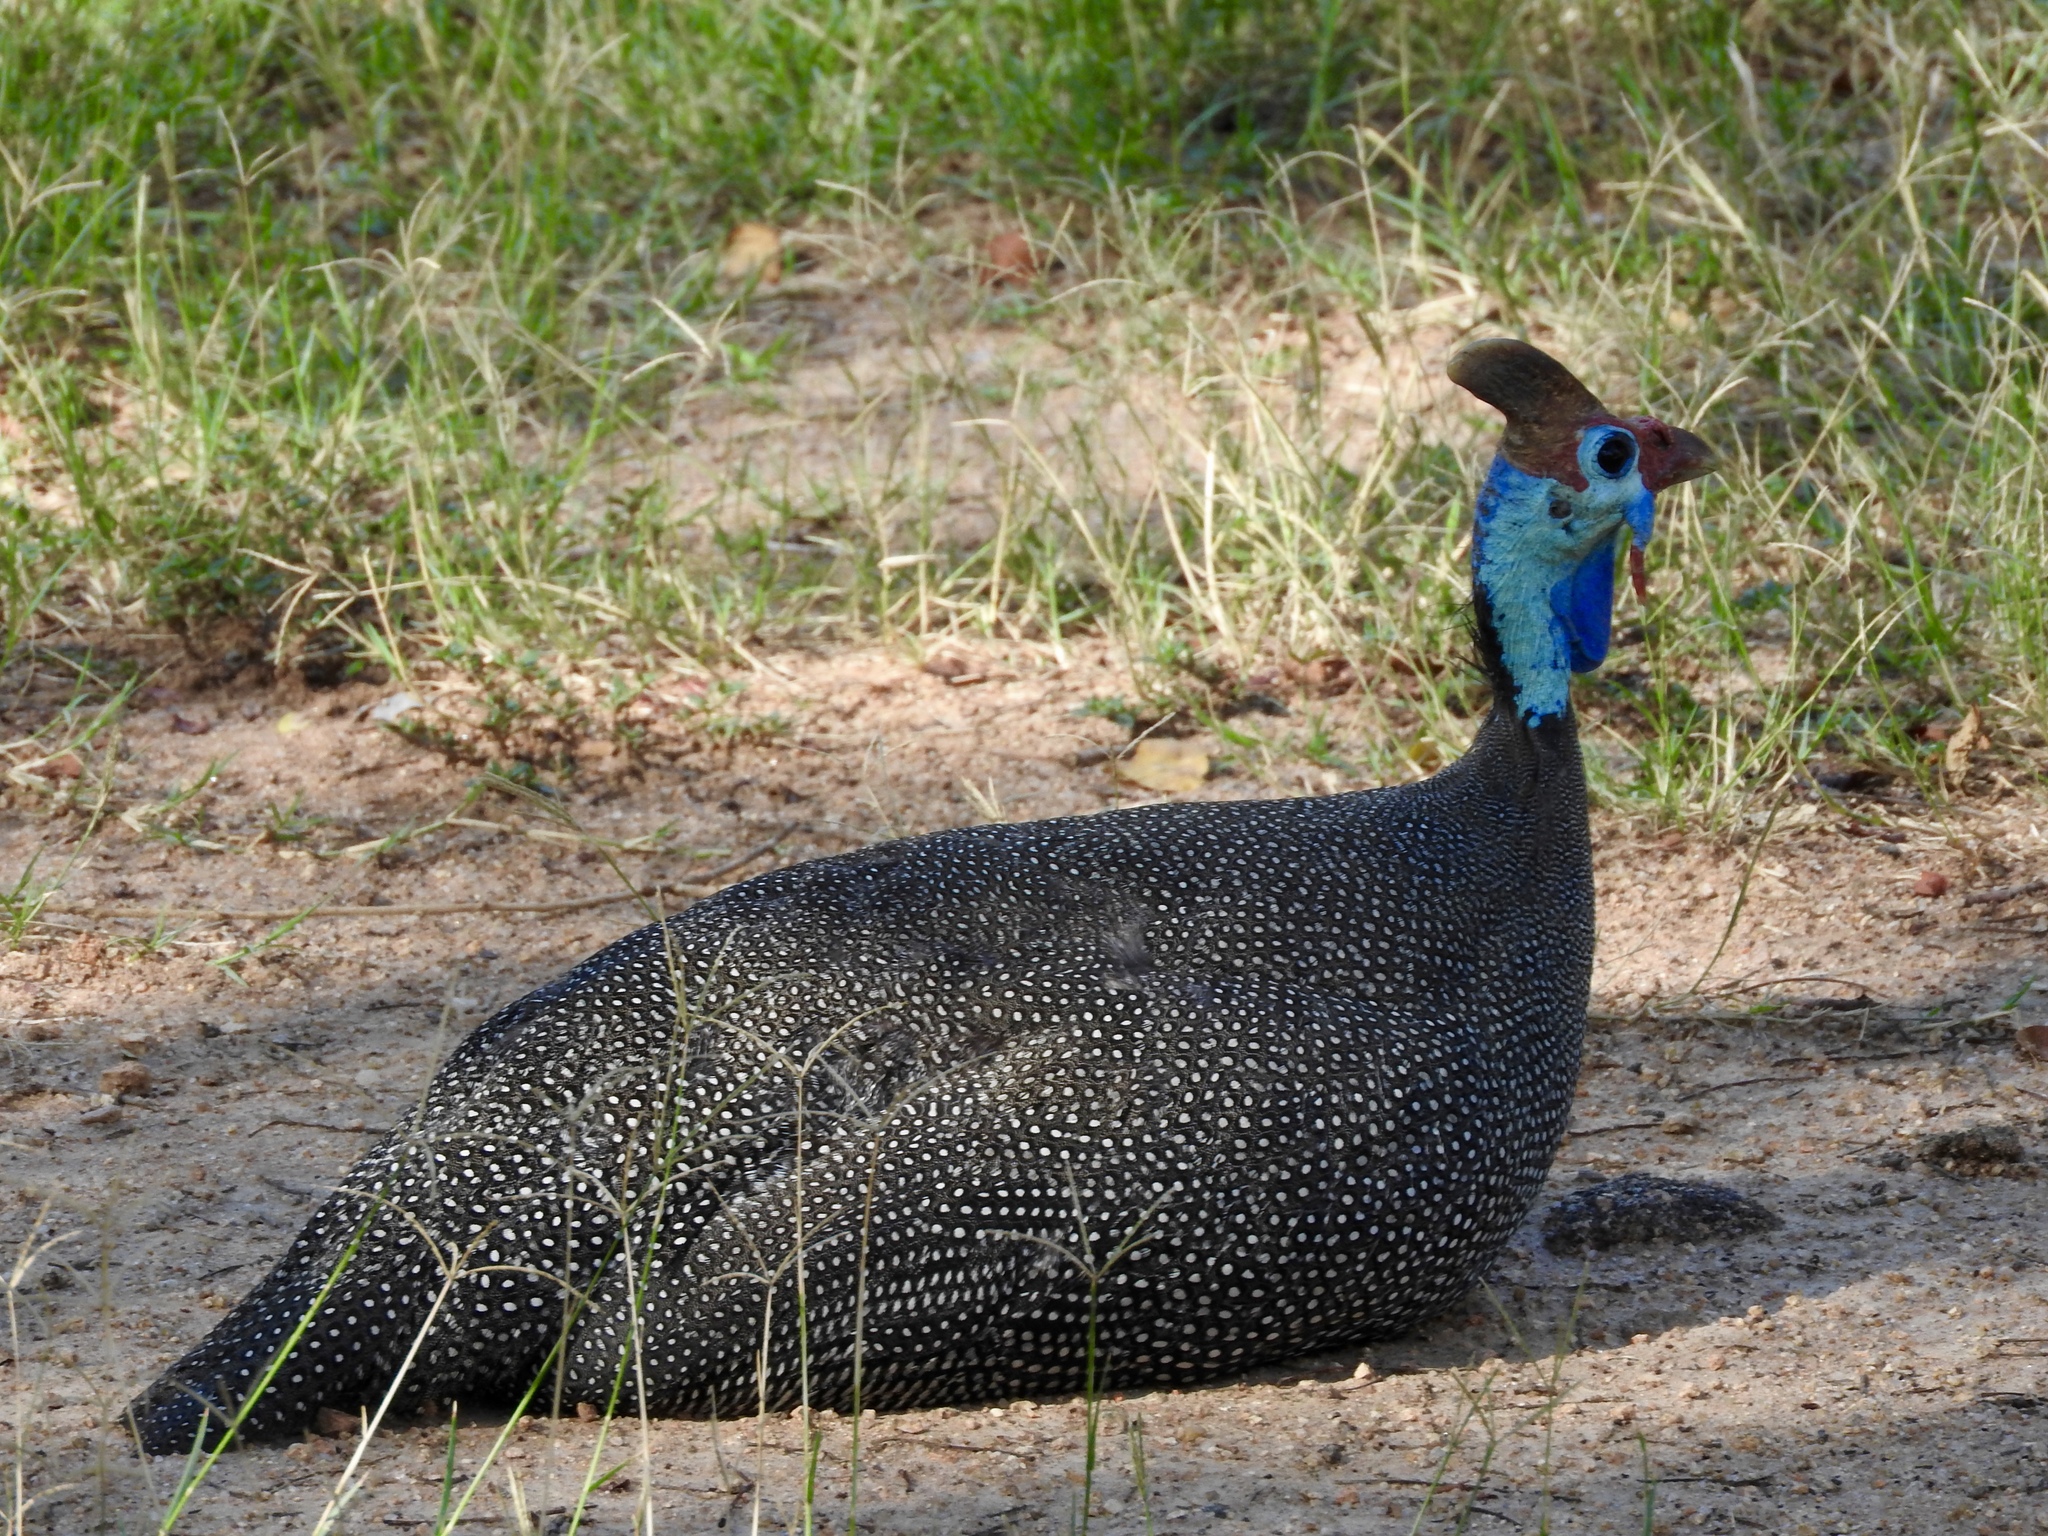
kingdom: Animalia
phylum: Chordata
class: Aves
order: Galliformes
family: Numididae
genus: Numida
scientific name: Numida meleagris
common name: Helmeted guineafowl
